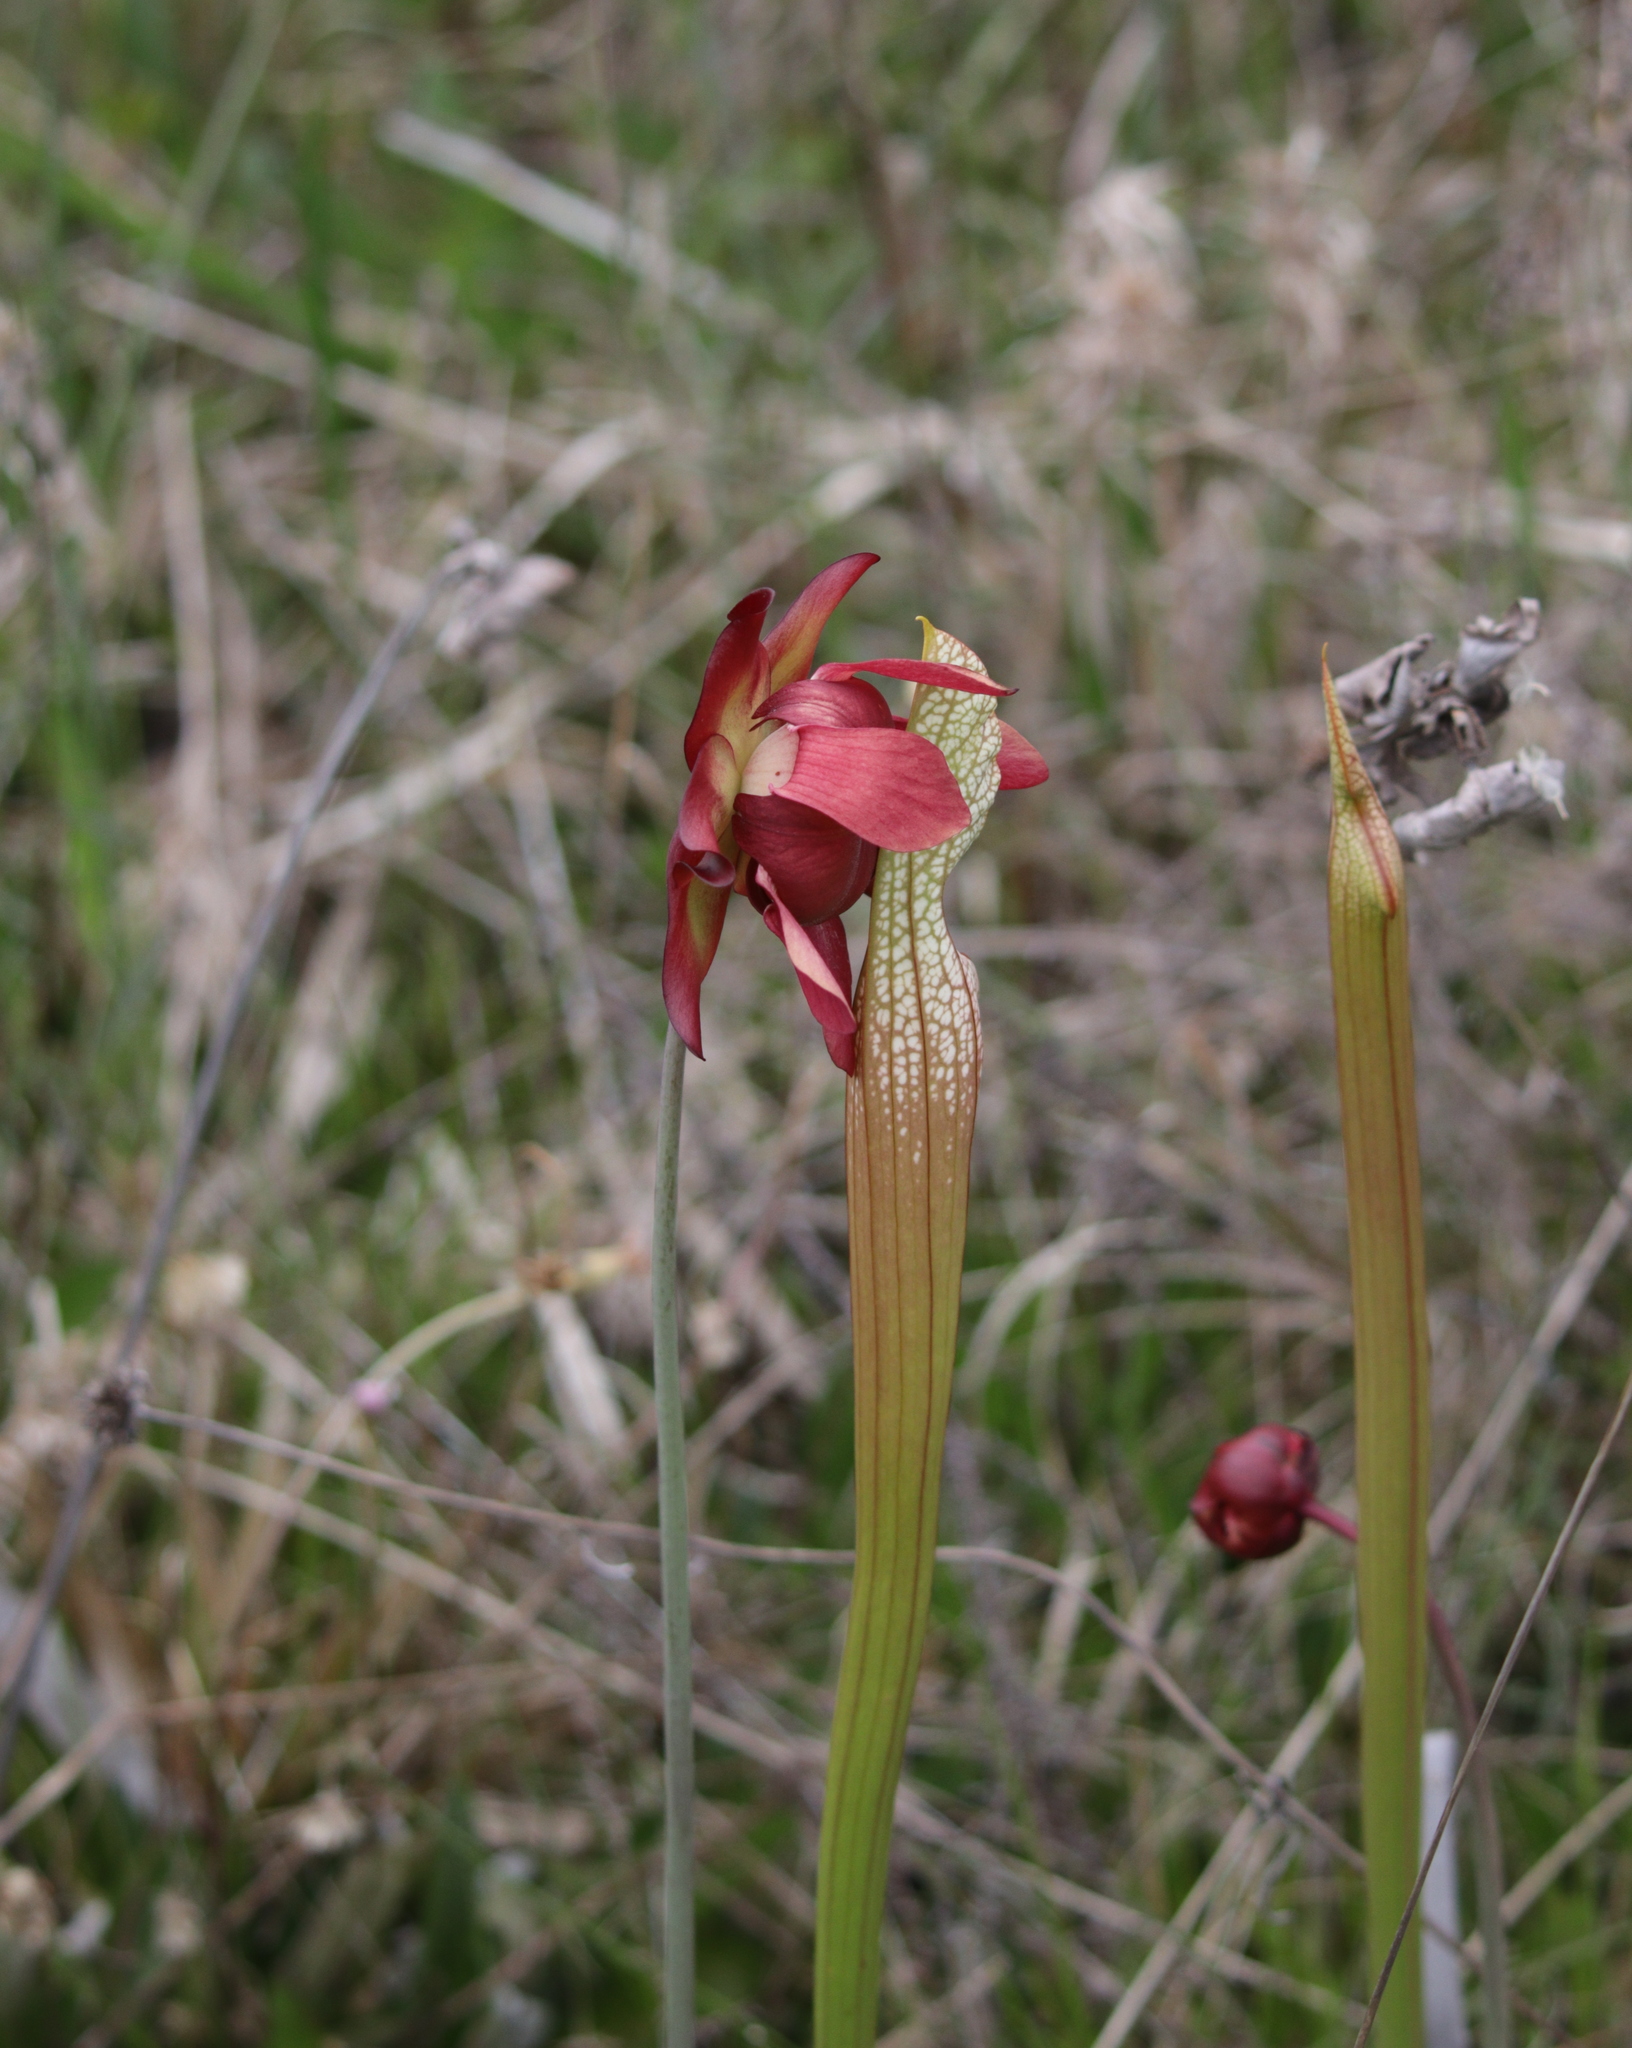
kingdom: Plantae
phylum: Tracheophyta
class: Magnoliopsida
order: Ericales
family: Sarraceniaceae
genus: Sarracenia
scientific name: Sarracenia leucophylla
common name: Purple trumpetleaf
